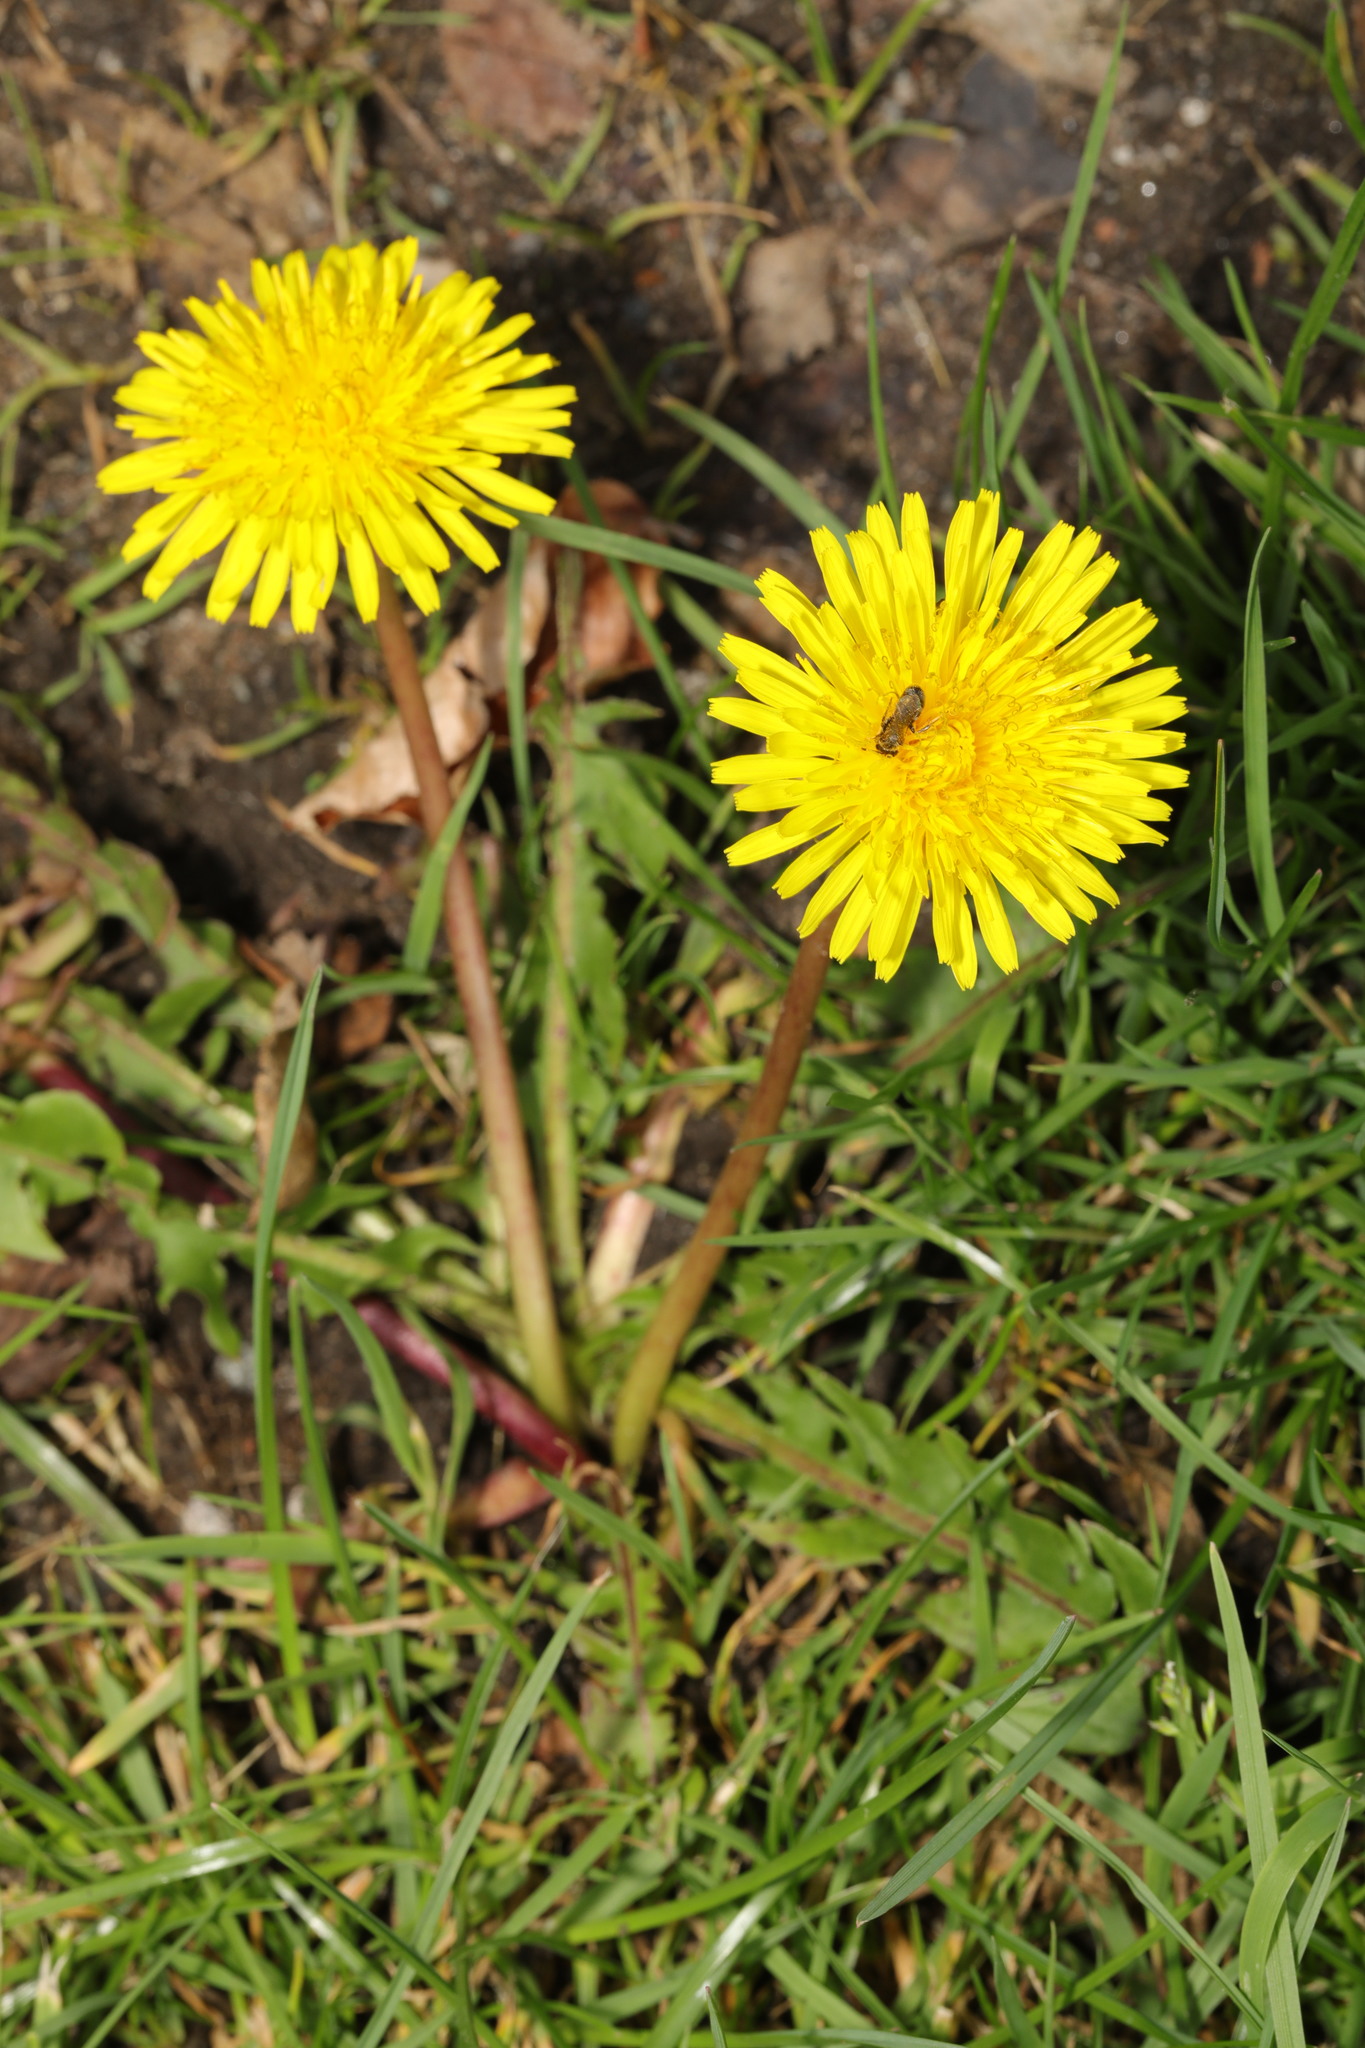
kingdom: Plantae
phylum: Tracheophyta
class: Magnoliopsida
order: Asterales
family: Asteraceae
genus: Taraxacum
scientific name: Taraxacum officinale
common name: Common dandelion
